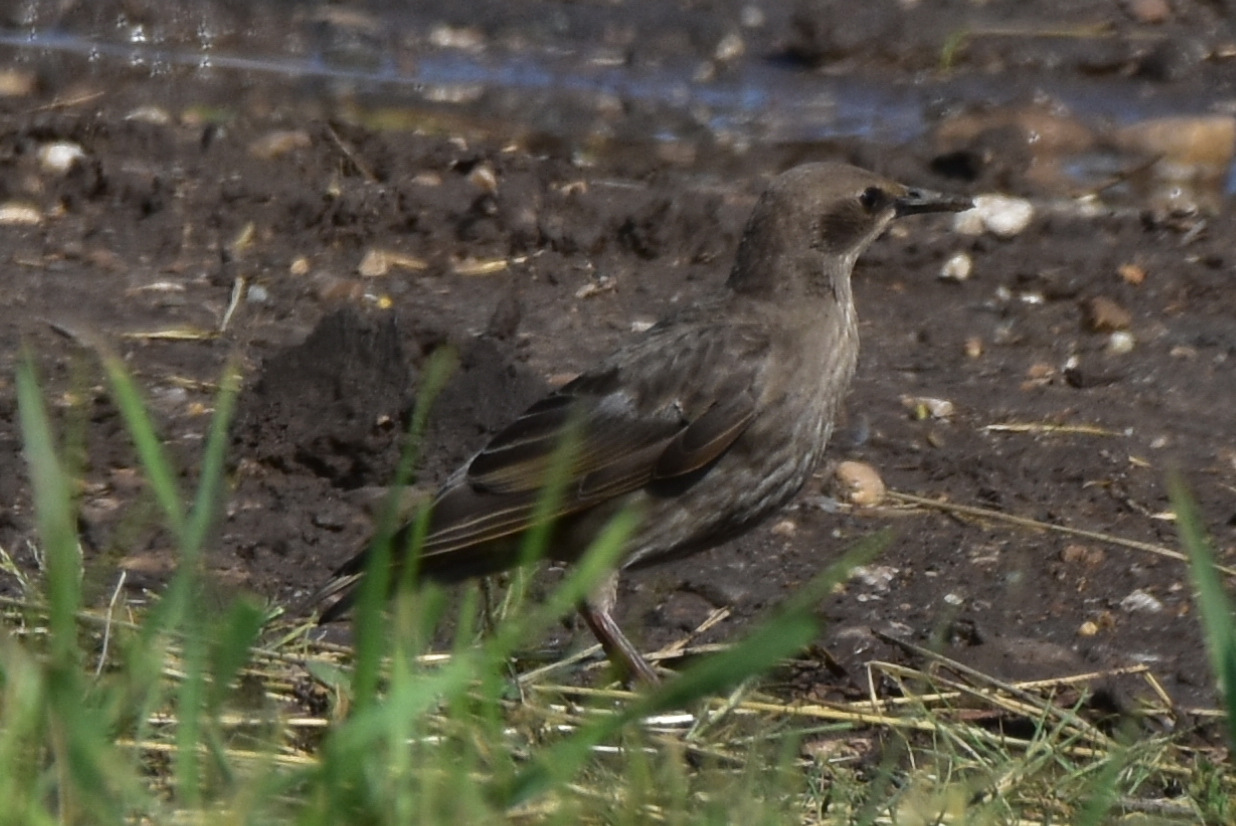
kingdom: Animalia
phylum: Chordata
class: Aves
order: Passeriformes
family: Sturnidae
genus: Sturnus
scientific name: Sturnus vulgaris
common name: Common starling
